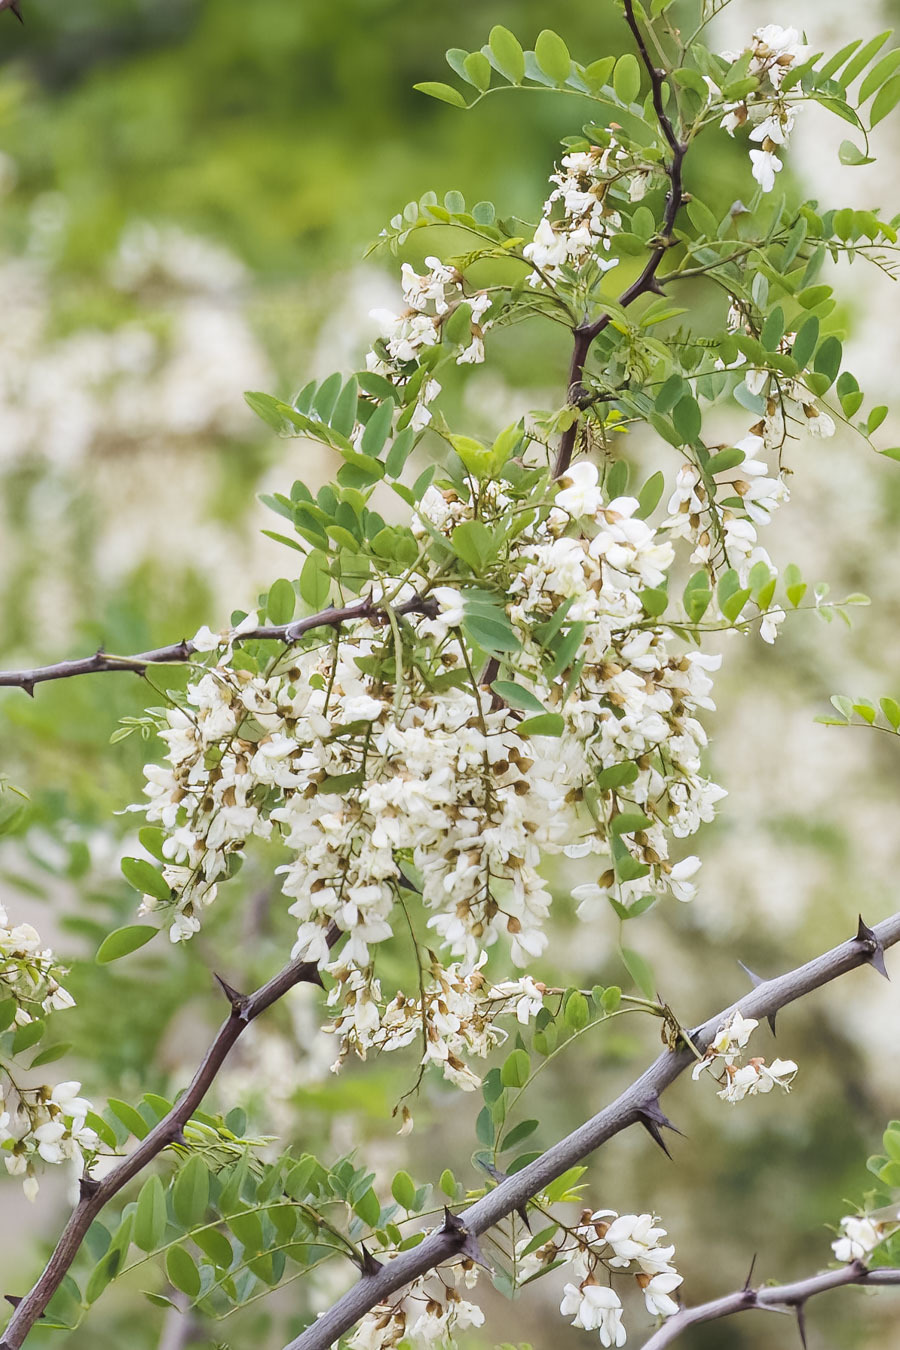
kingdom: Plantae
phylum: Tracheophyta
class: Magnoliopsida
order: Fabales
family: Fabaceae
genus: Robinia
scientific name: Robinia pseudoacacia
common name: Black locust
